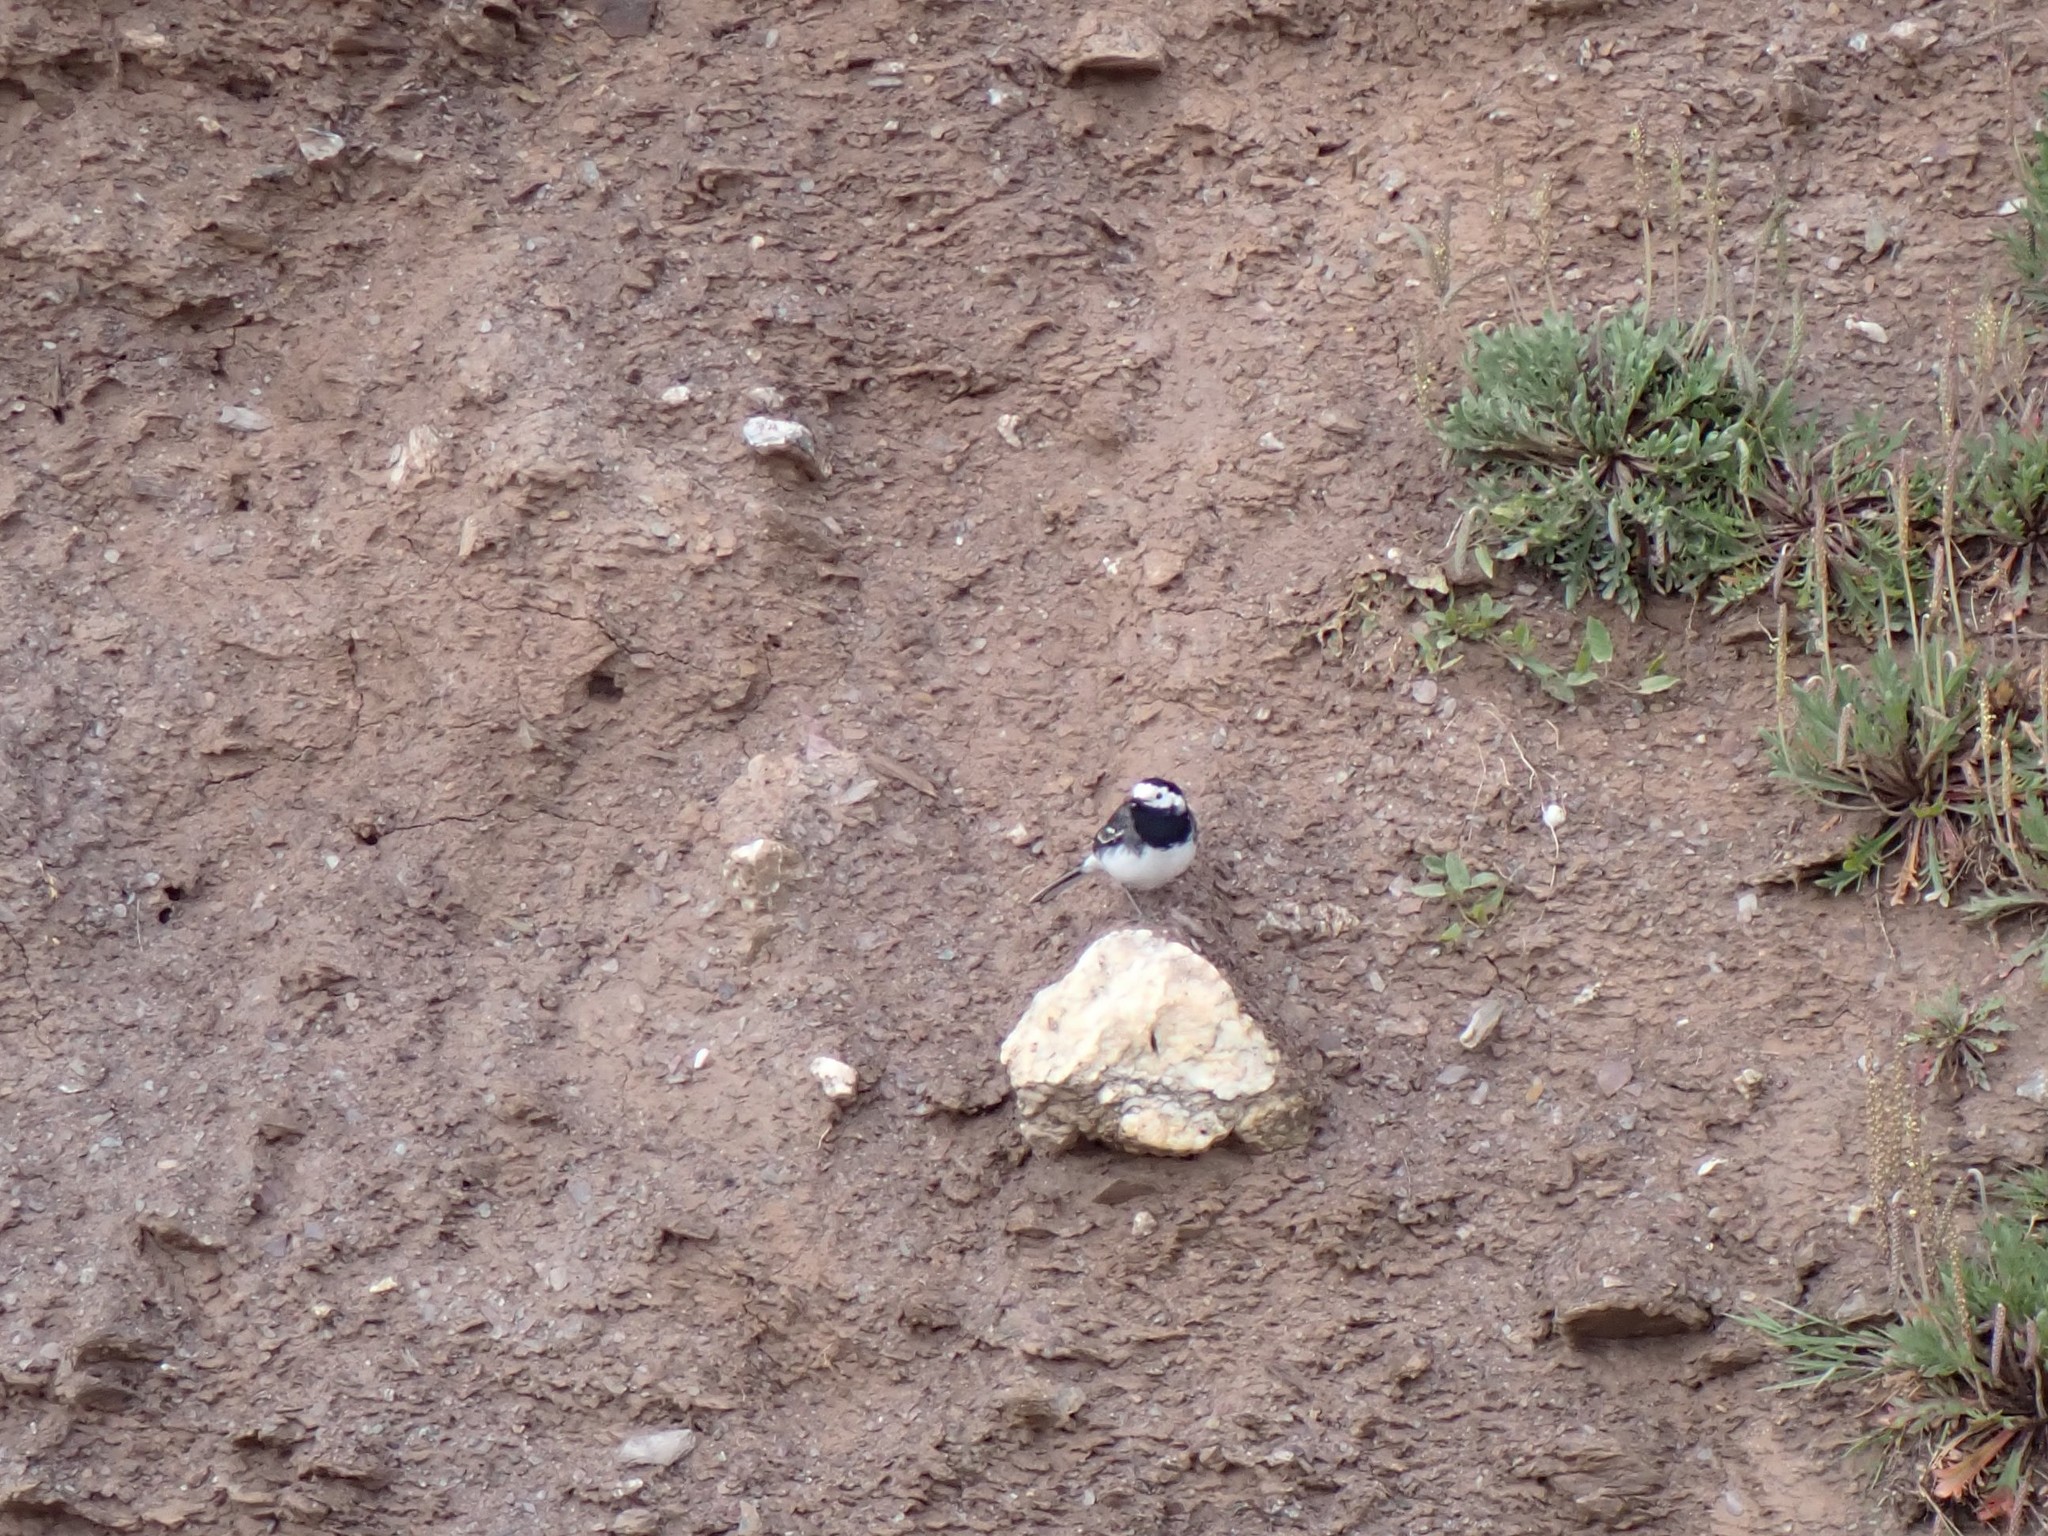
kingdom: Animalia
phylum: Chordata
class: Aves
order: Passeriformes
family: Motacillidae
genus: Motacilla
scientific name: Motacilla alba
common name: White wagtail
